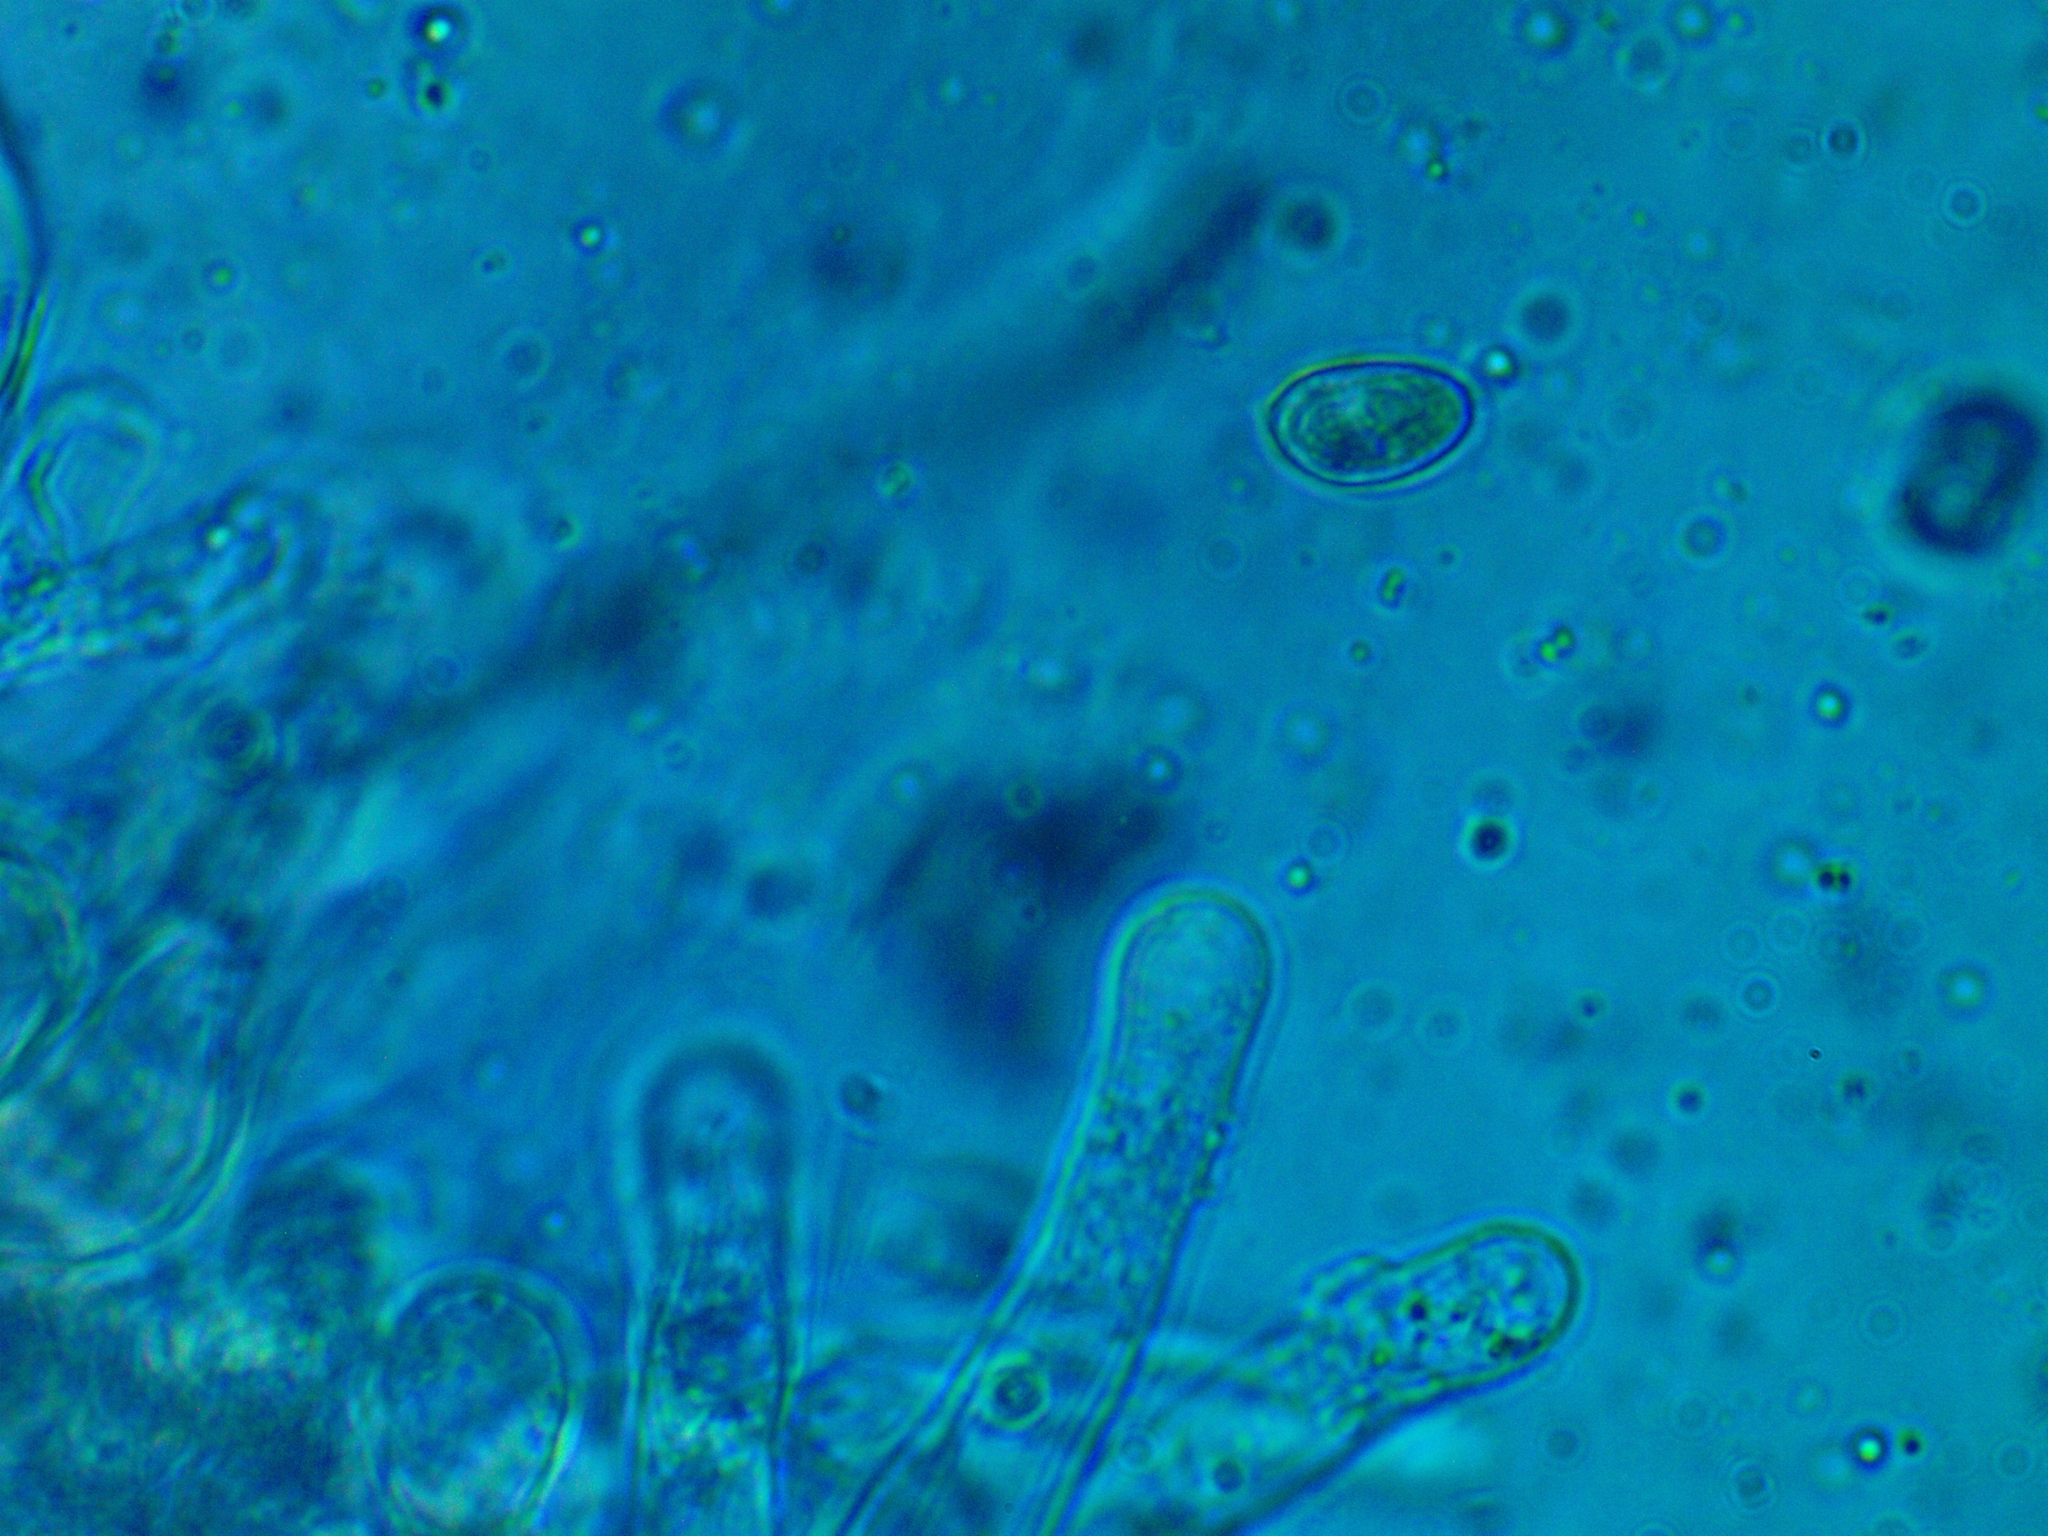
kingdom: Fungi
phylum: Basidiomycota
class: Agaricomycetes
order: Agaricales
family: Hymenogastraceae
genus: Hebeloma
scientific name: Hebeloma velatum
